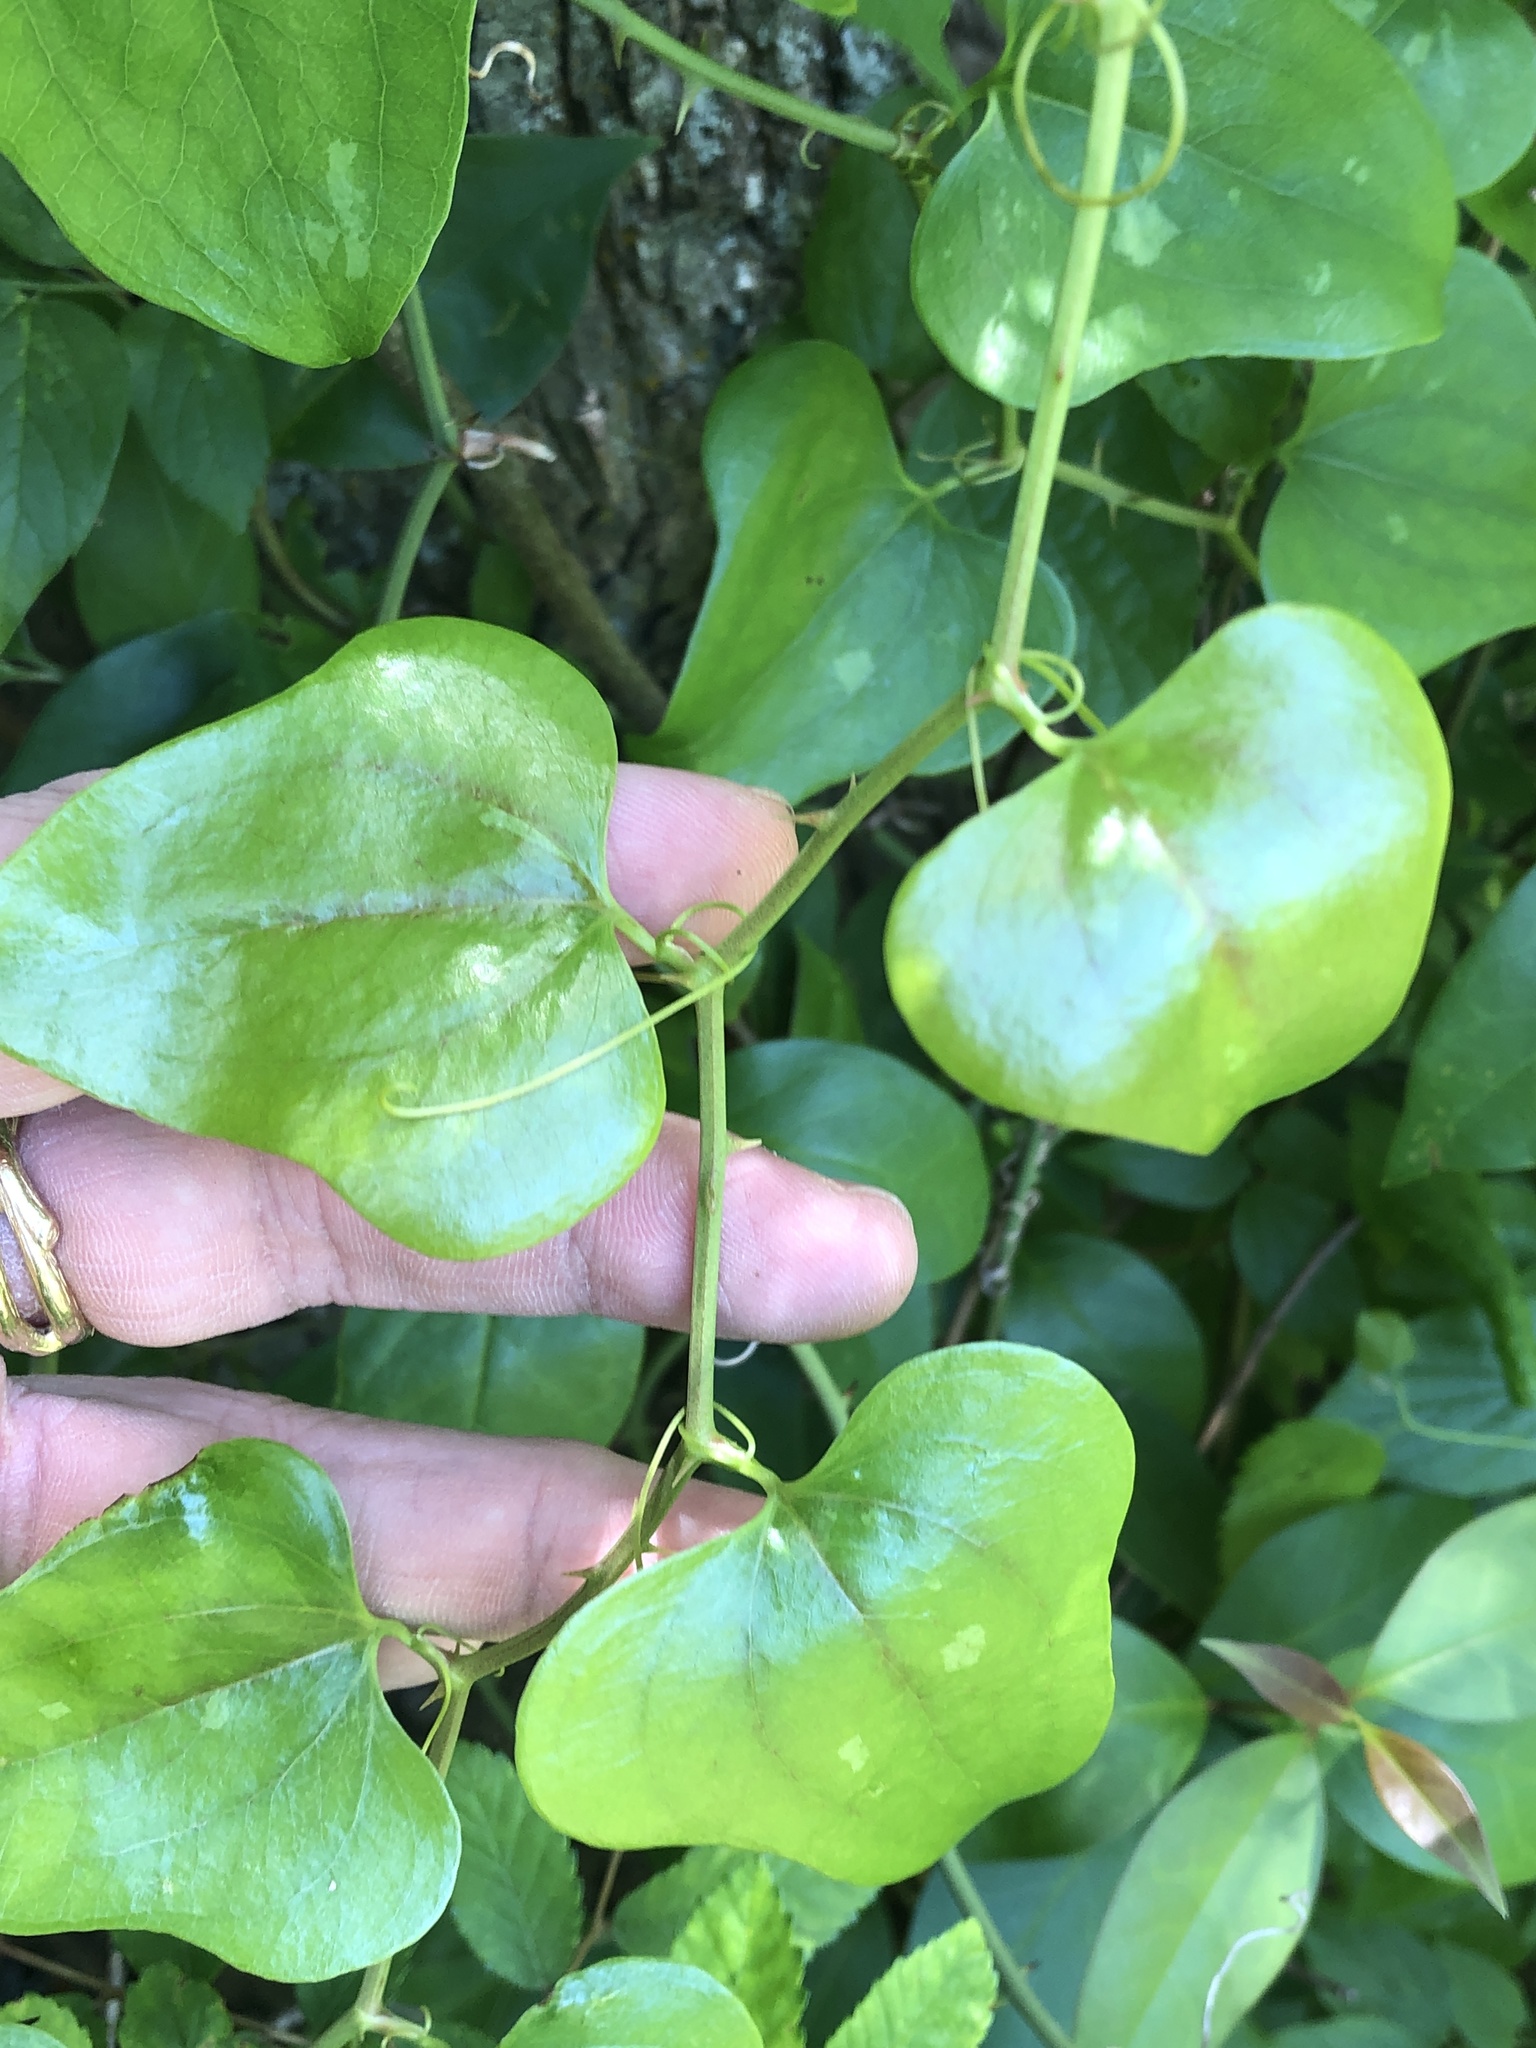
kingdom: Plantae
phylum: Tracheophyta
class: Liliopsida
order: Liliales
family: Smilacaceae
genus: Smilax
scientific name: Smilax bona-nox
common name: Catbrier
